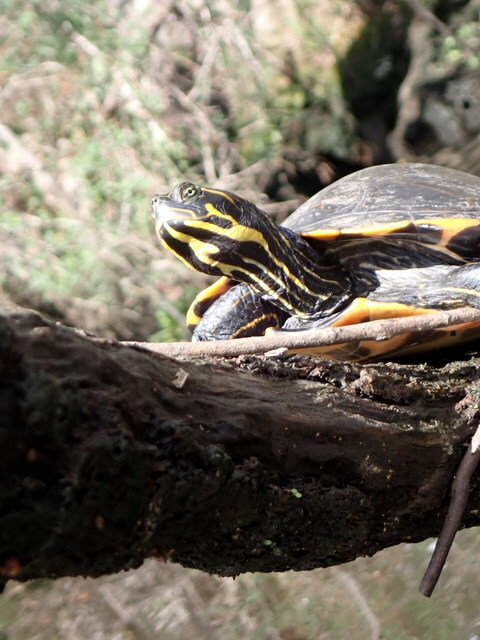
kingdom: Animalia
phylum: Chordata
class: Testudines
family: Emydidae
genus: Pseudemys
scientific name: Pseudemys concinna
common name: Eastern river cooter
